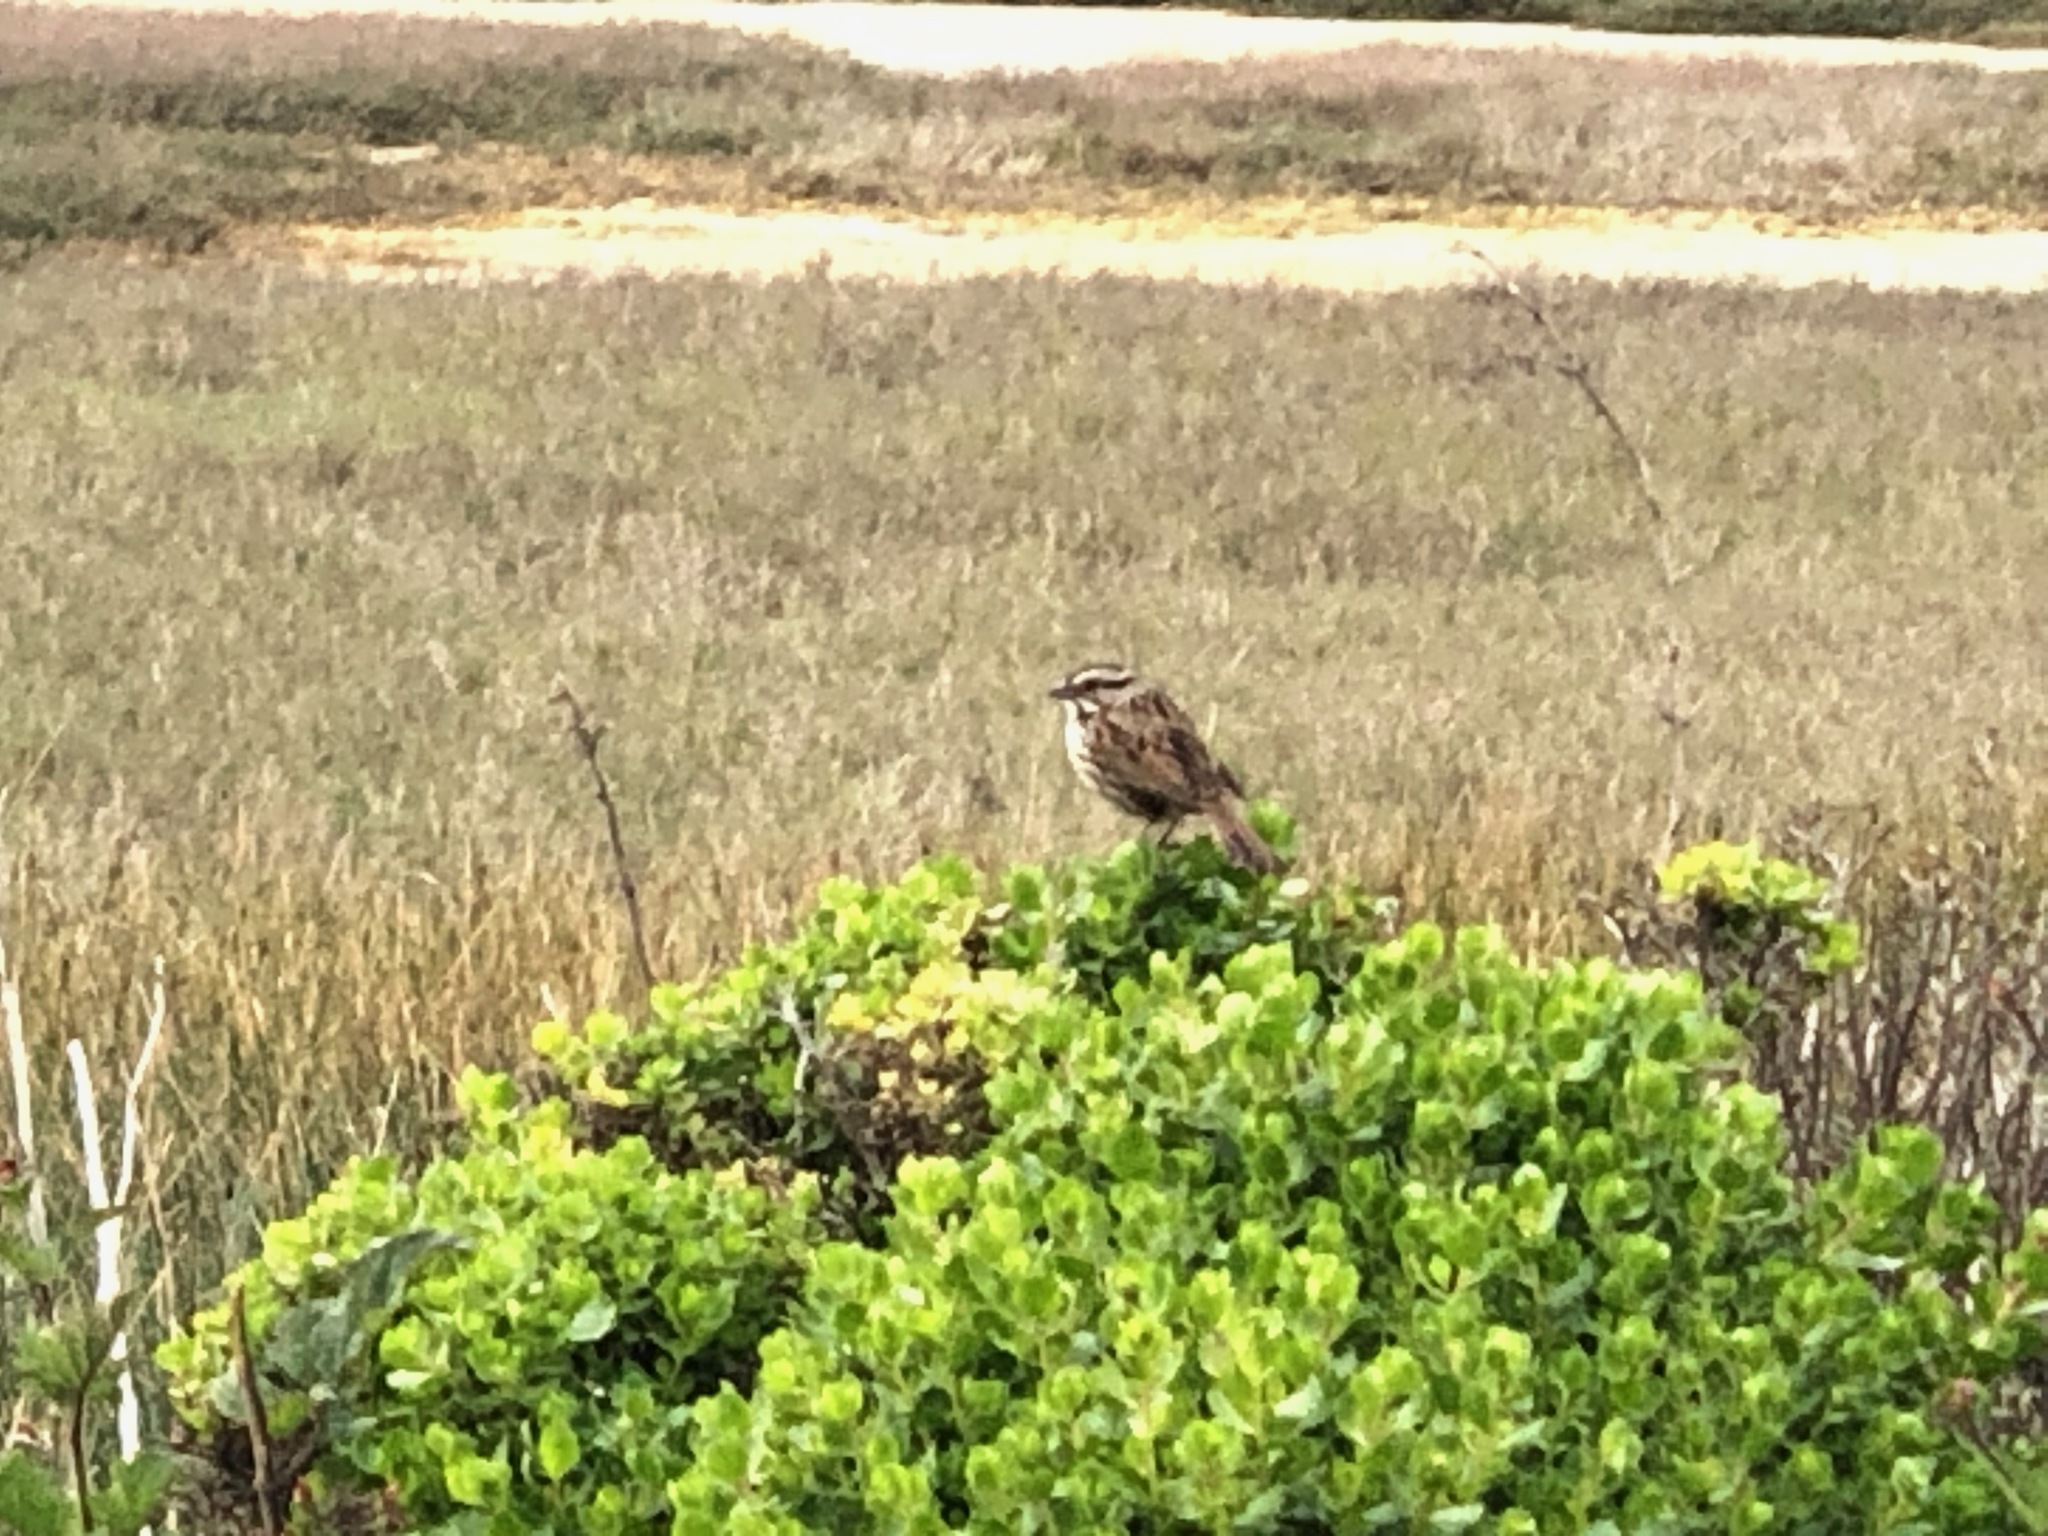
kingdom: Animalia
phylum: Chordata
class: Aves
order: Passeriformes
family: Passerellidae
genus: Melospiza
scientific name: Melospiza melodia
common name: Song sparrow
